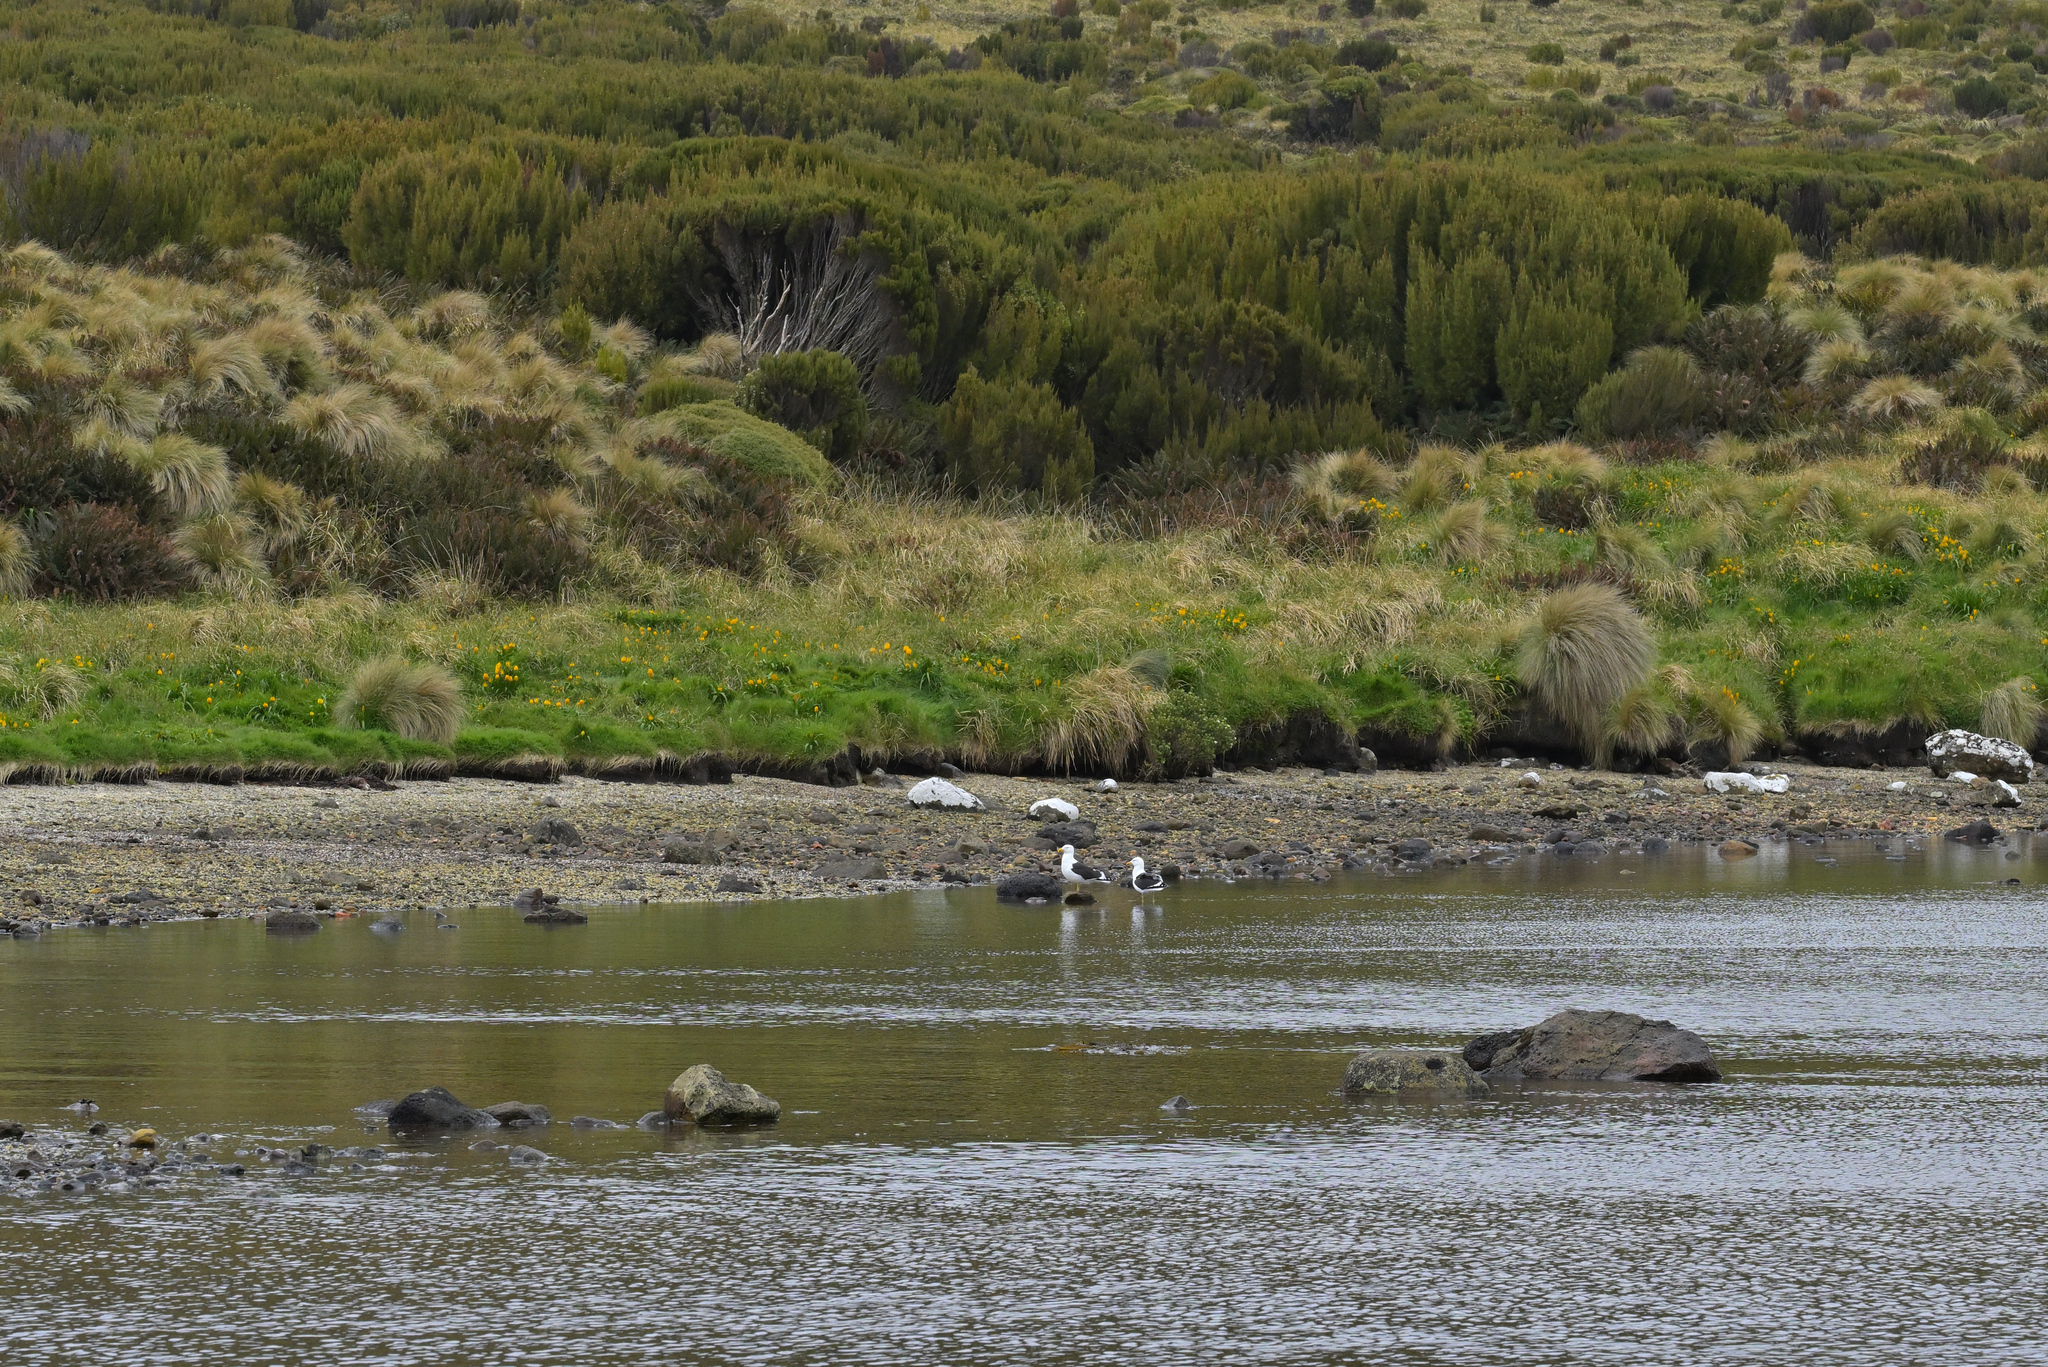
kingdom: Animalia
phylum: Chordata
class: Aves
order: Charadriiformes
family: Laridae
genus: Larus
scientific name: Larus dominicanus
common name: Kelp gull
